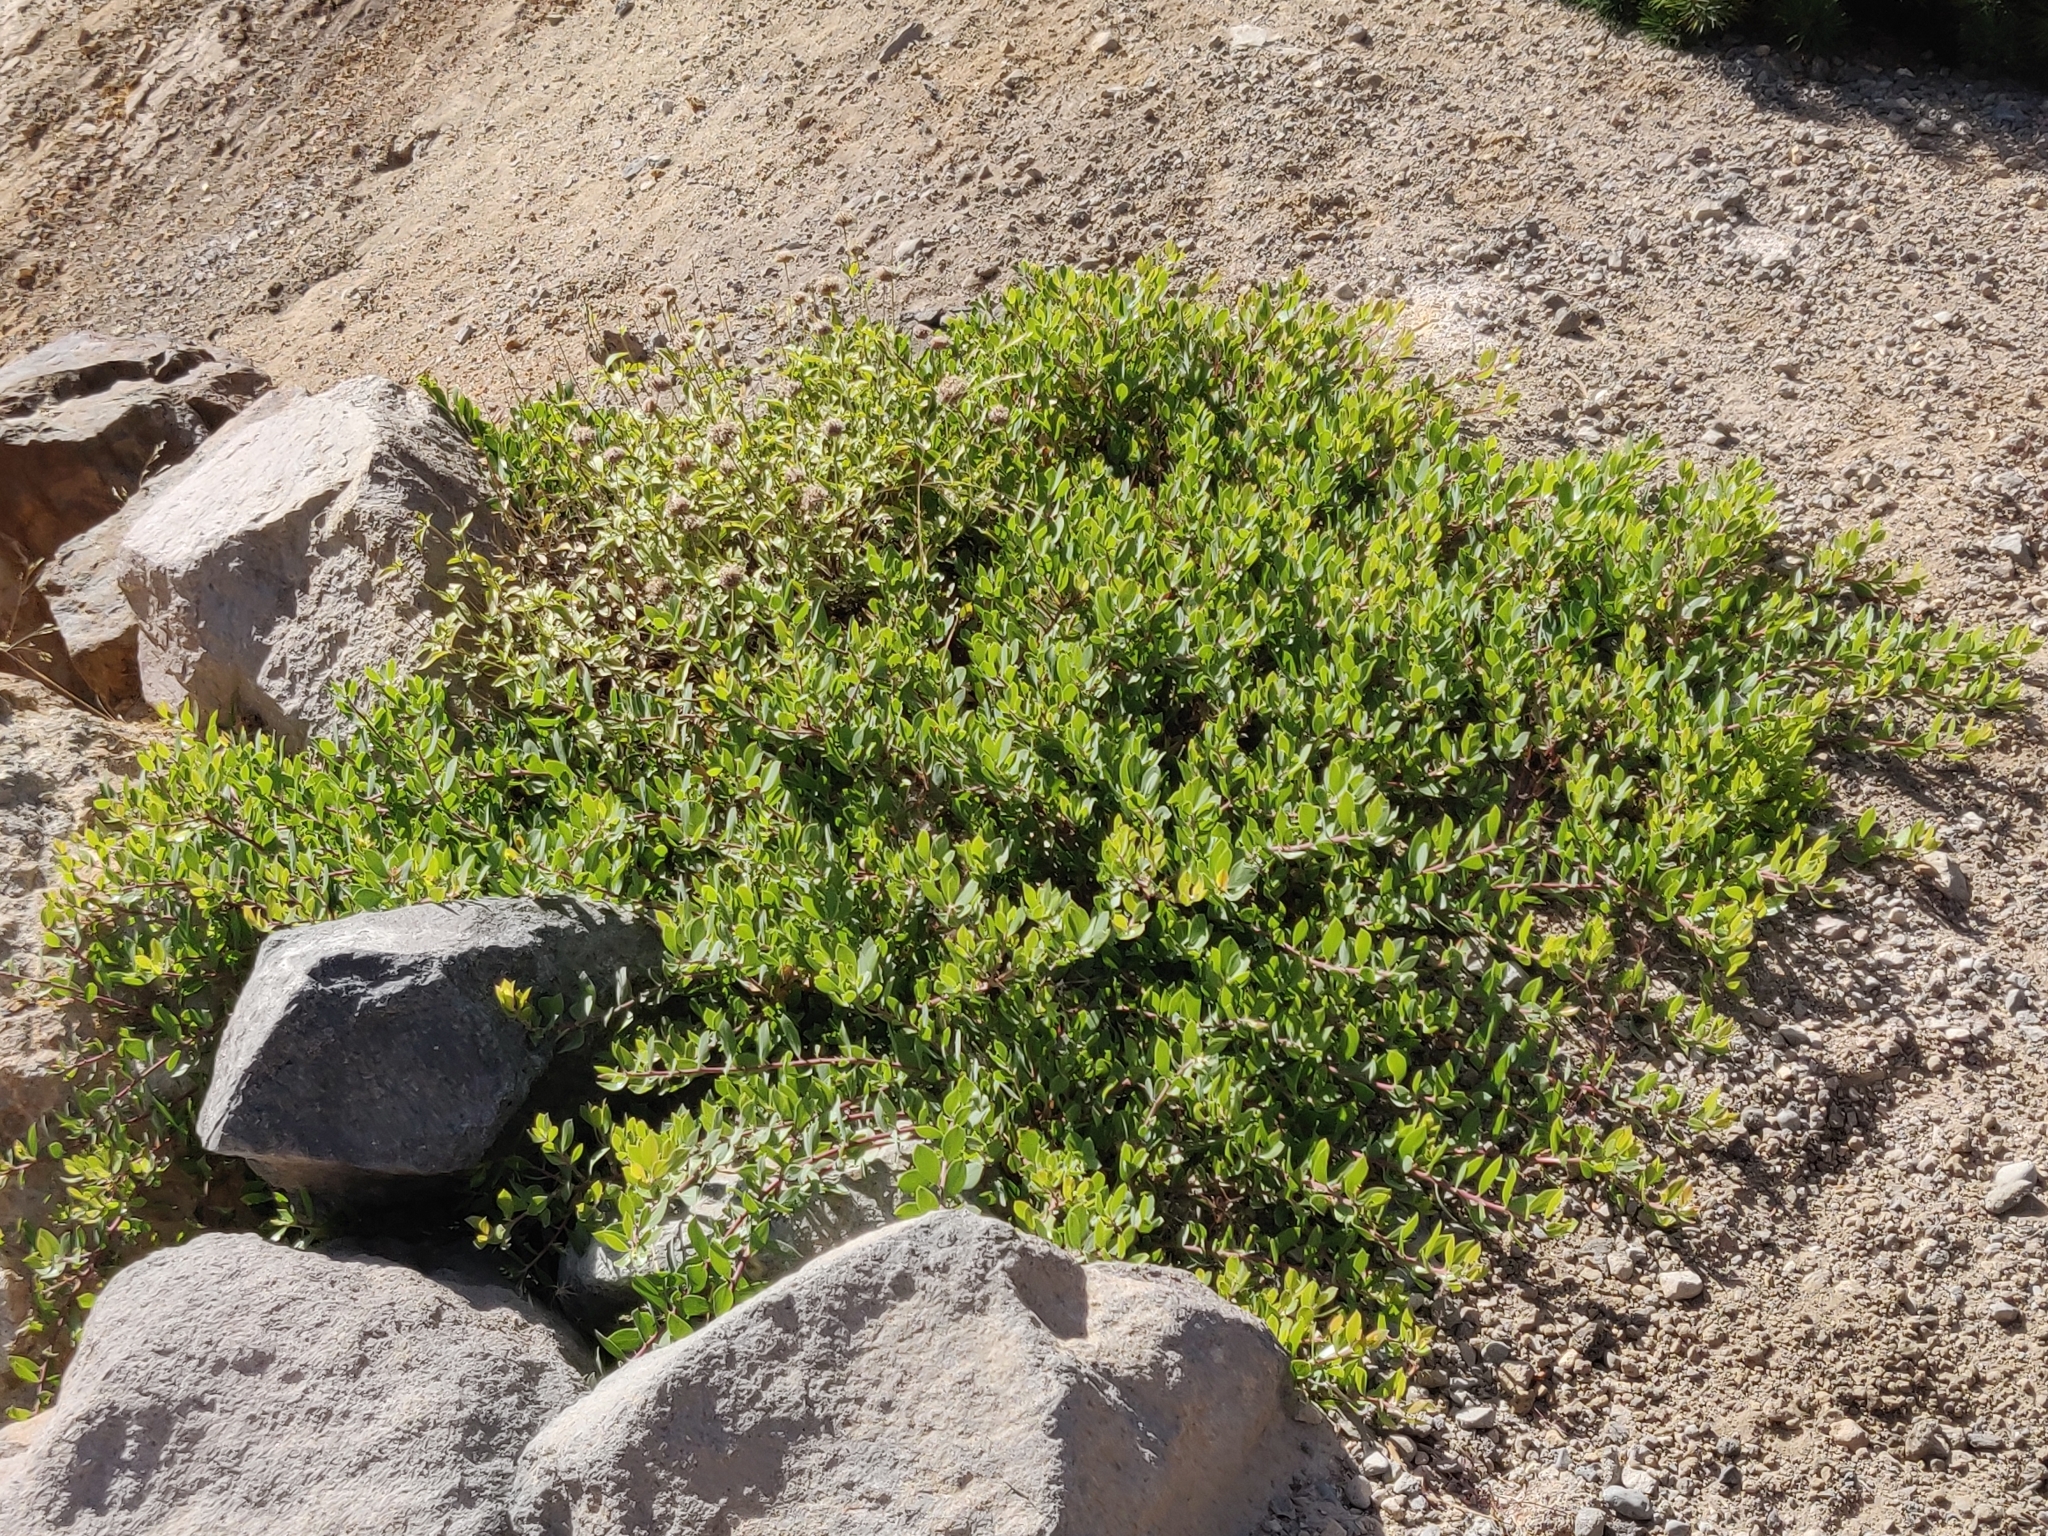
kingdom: Plantae
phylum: Tracheophyta
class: Magnoliopsida
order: Ericales
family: Ericaceae
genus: Arctostaphylos
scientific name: Arctostaphylos nevadensis
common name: Pinemat manzanita
